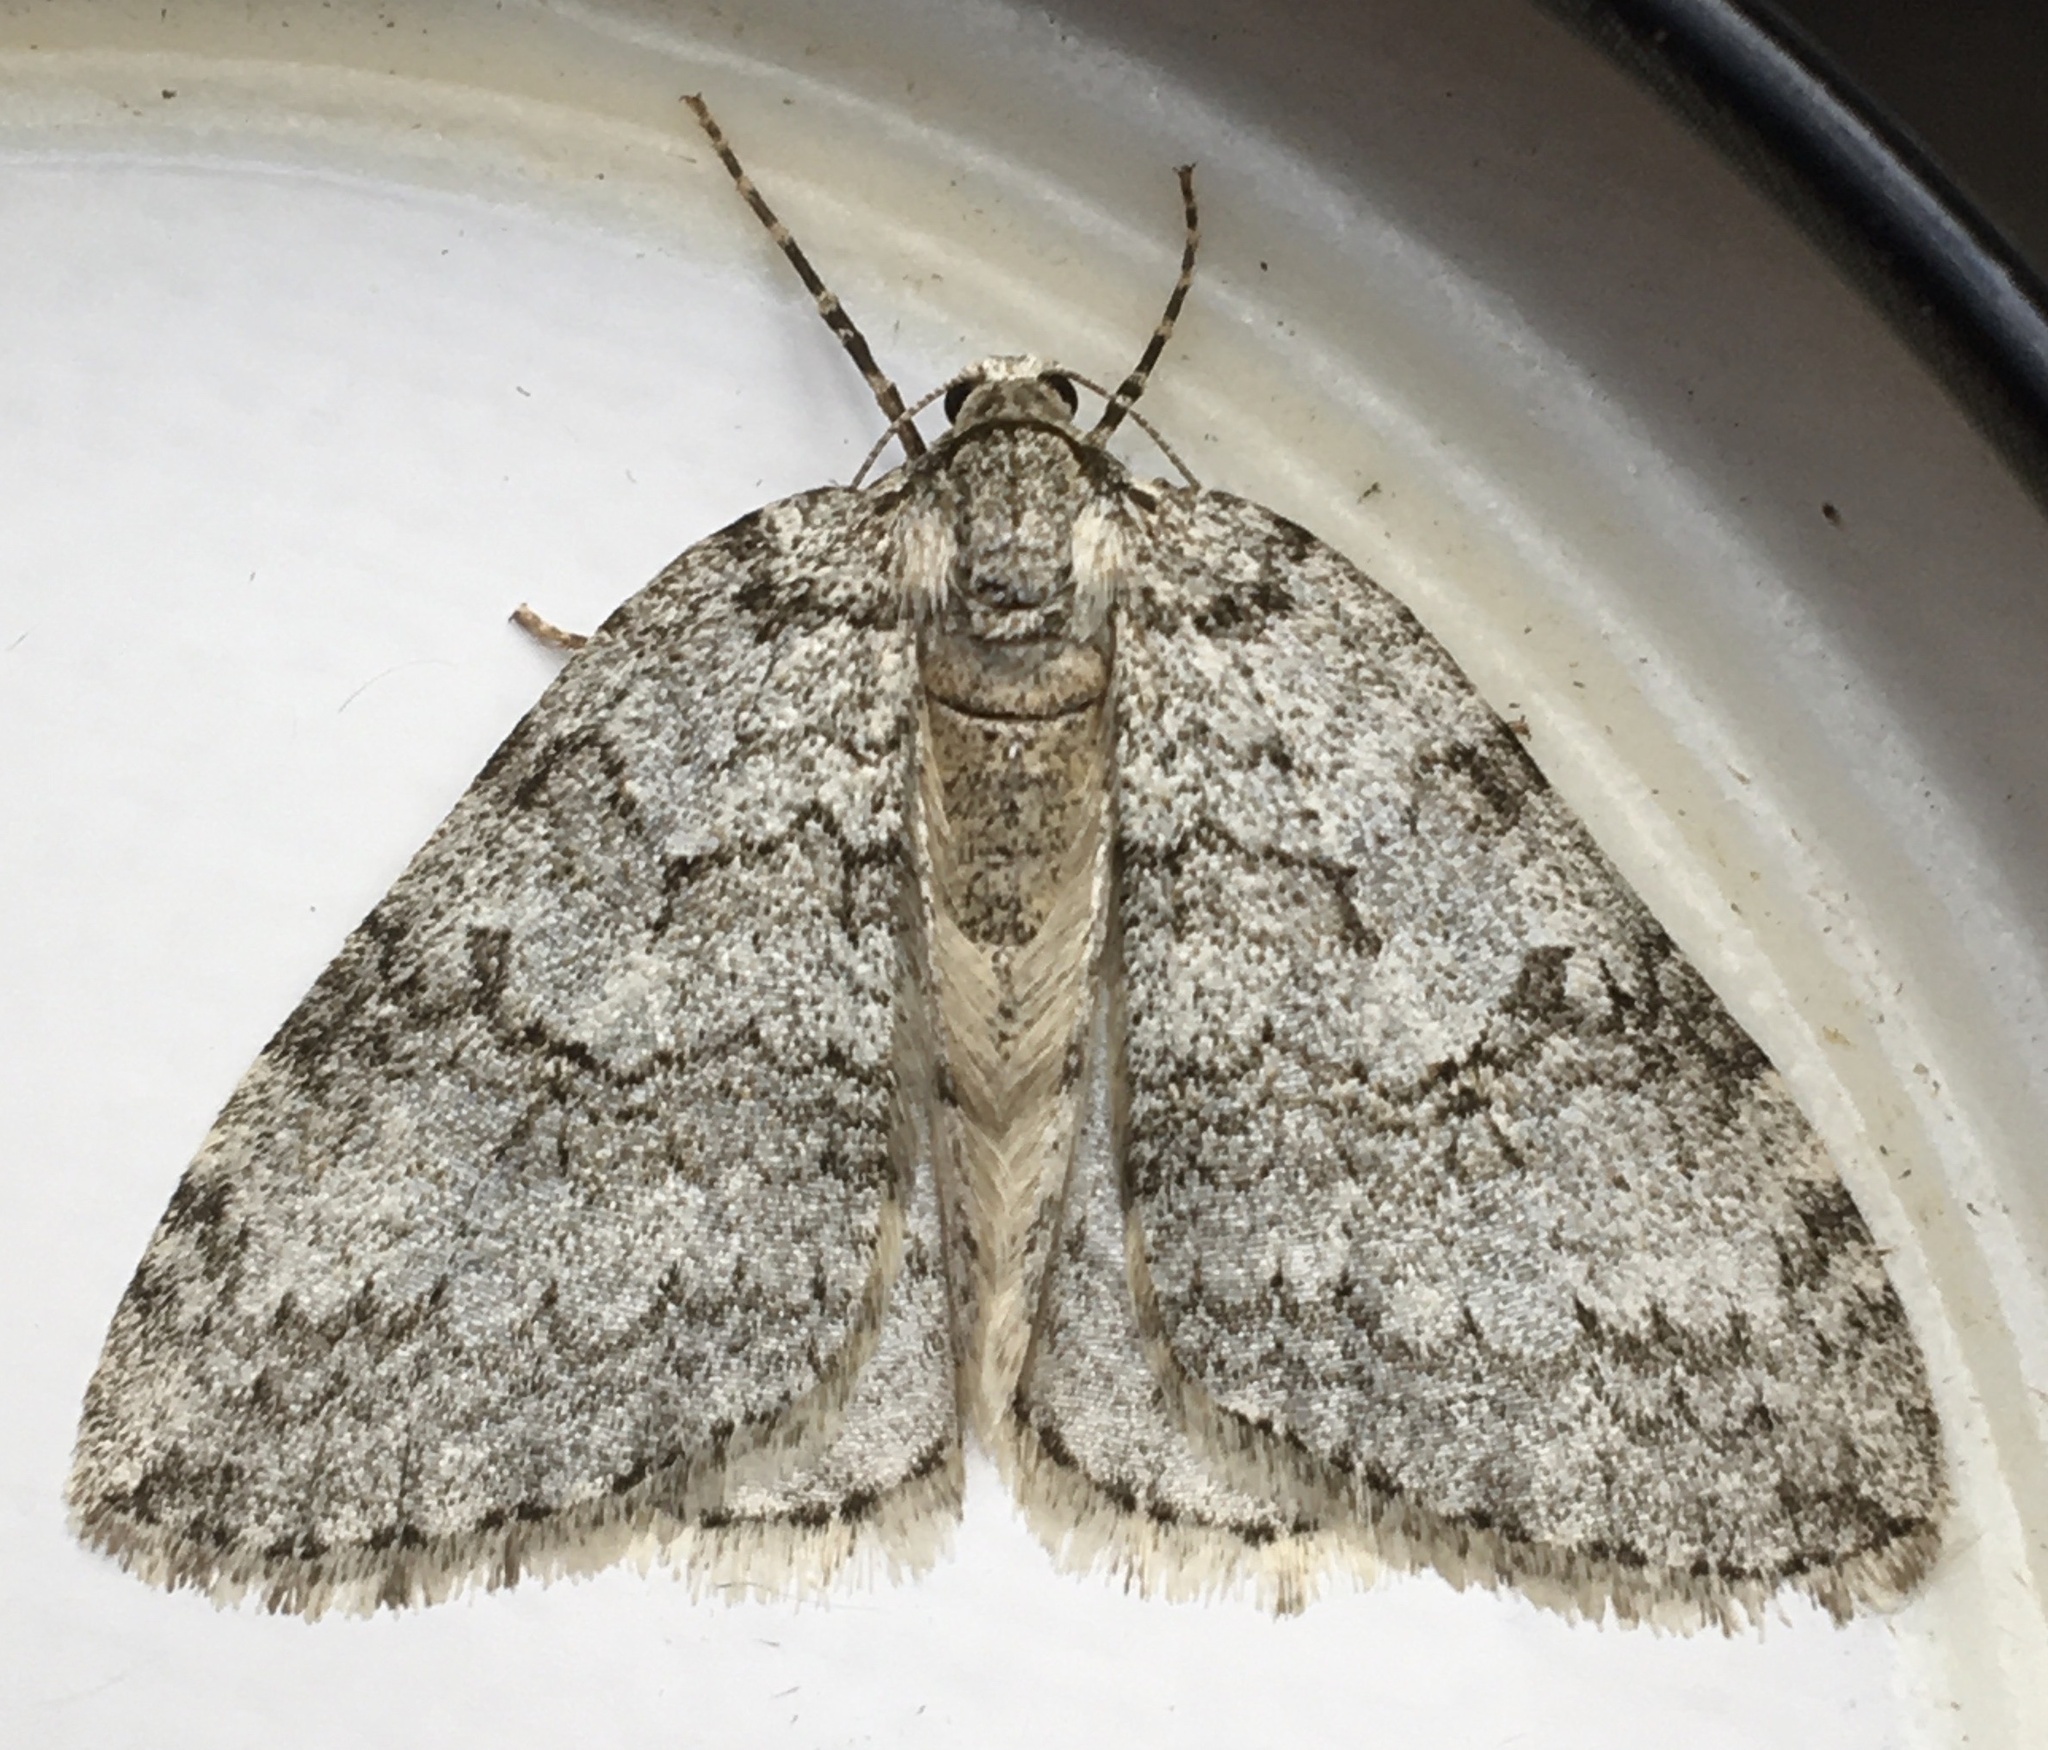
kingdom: Animalia
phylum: Arthropoda
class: Insecta
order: Lepidoptera
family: Geometridae
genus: Epirrita
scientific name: Epirrita dilutata
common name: November moth
